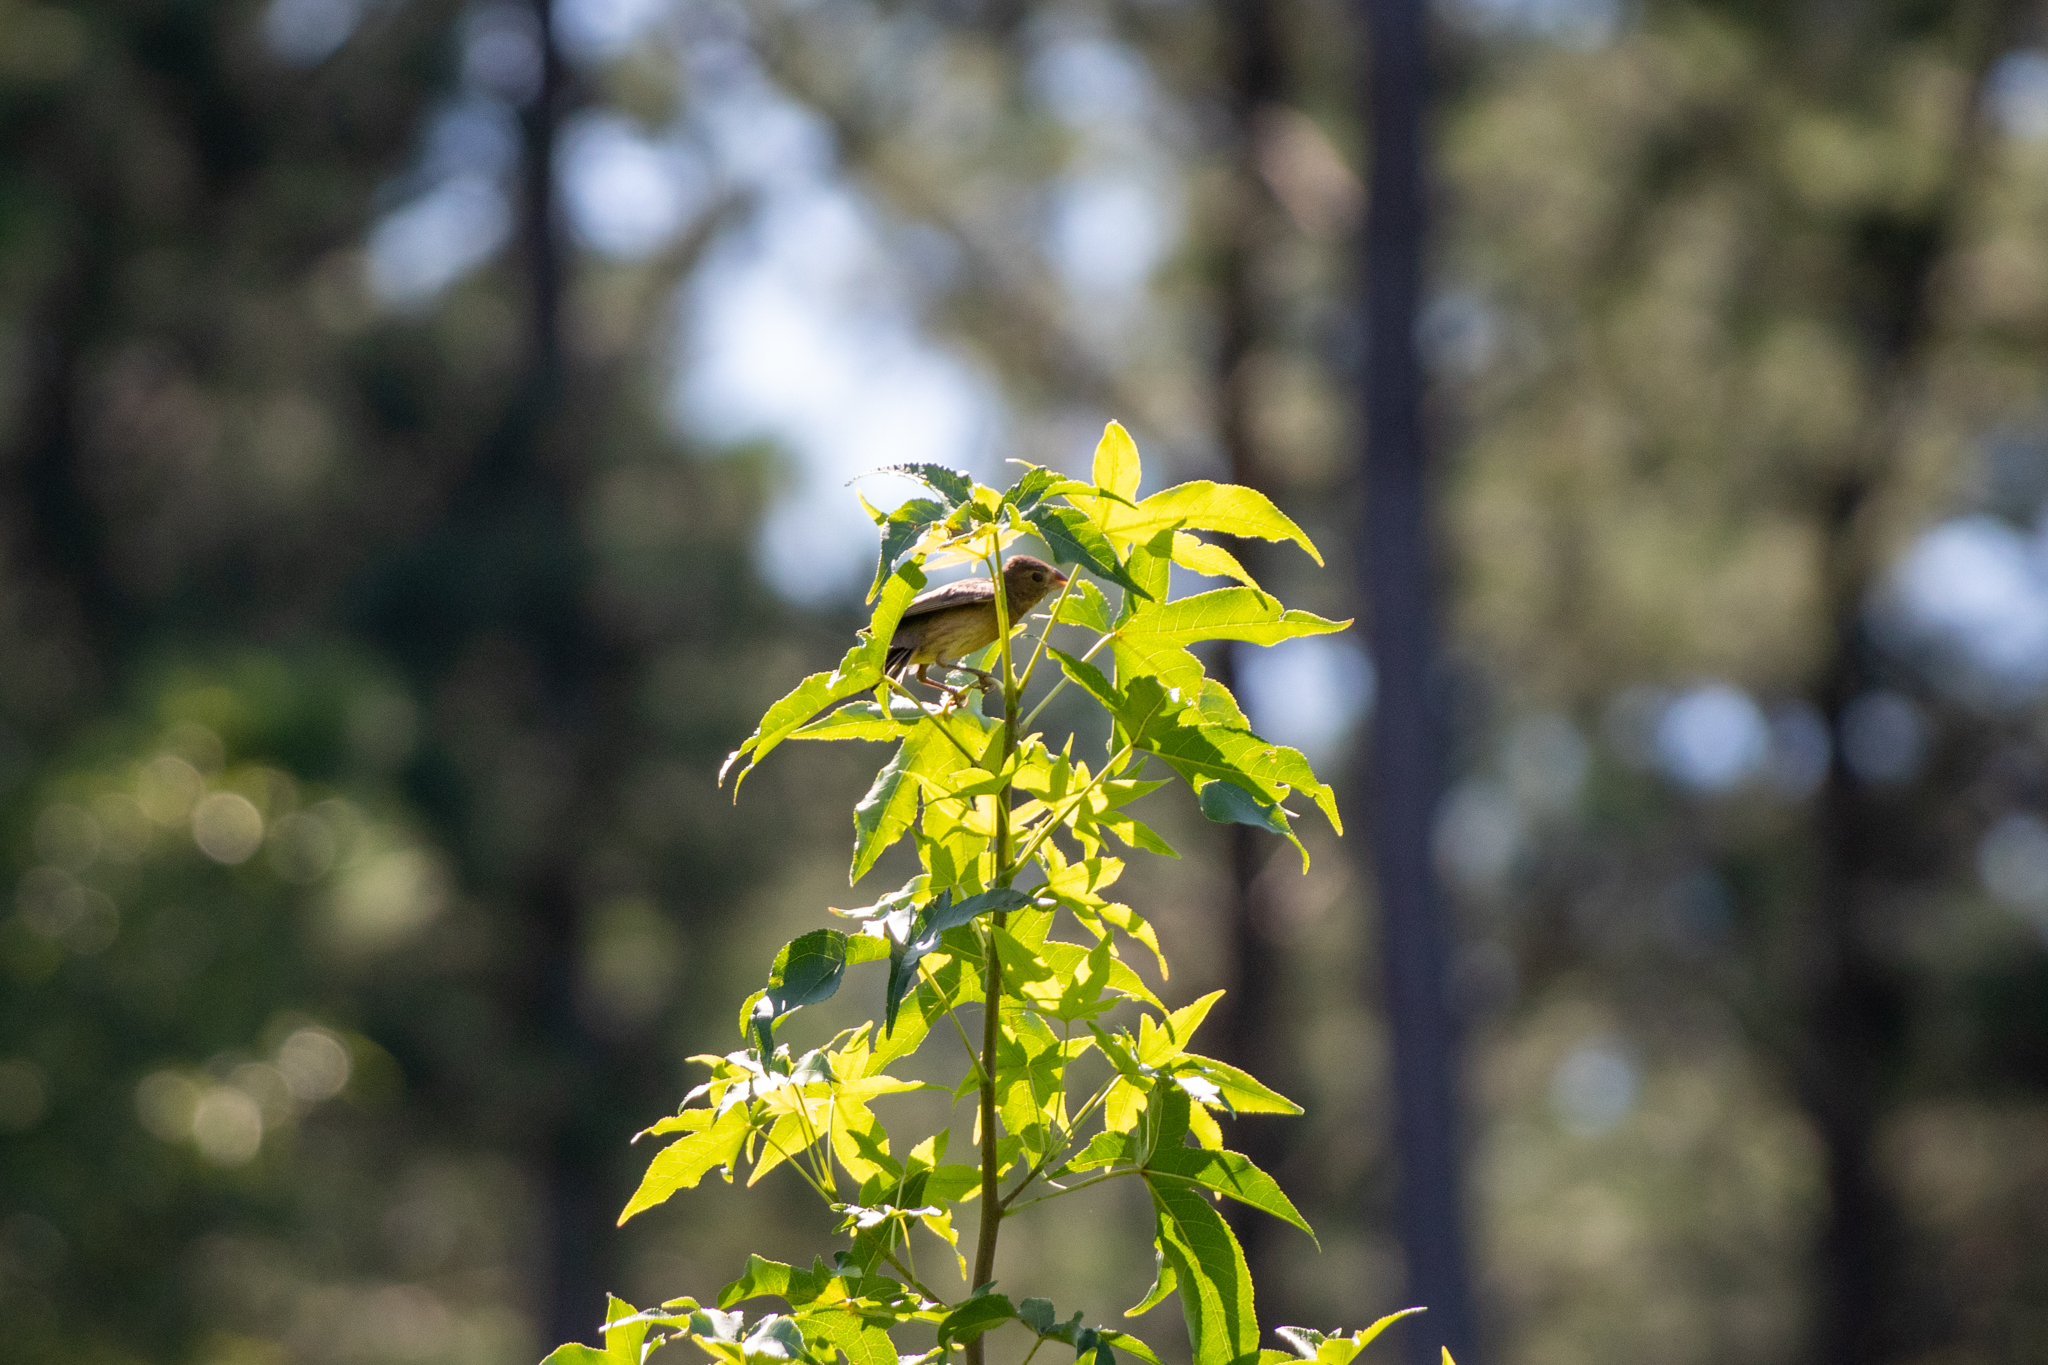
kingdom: Animalia
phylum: Chordata
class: Aves
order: Passeriformes
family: Cardinalidae
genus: Passerina
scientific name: Passerina caerulea
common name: Blue grosbeak
